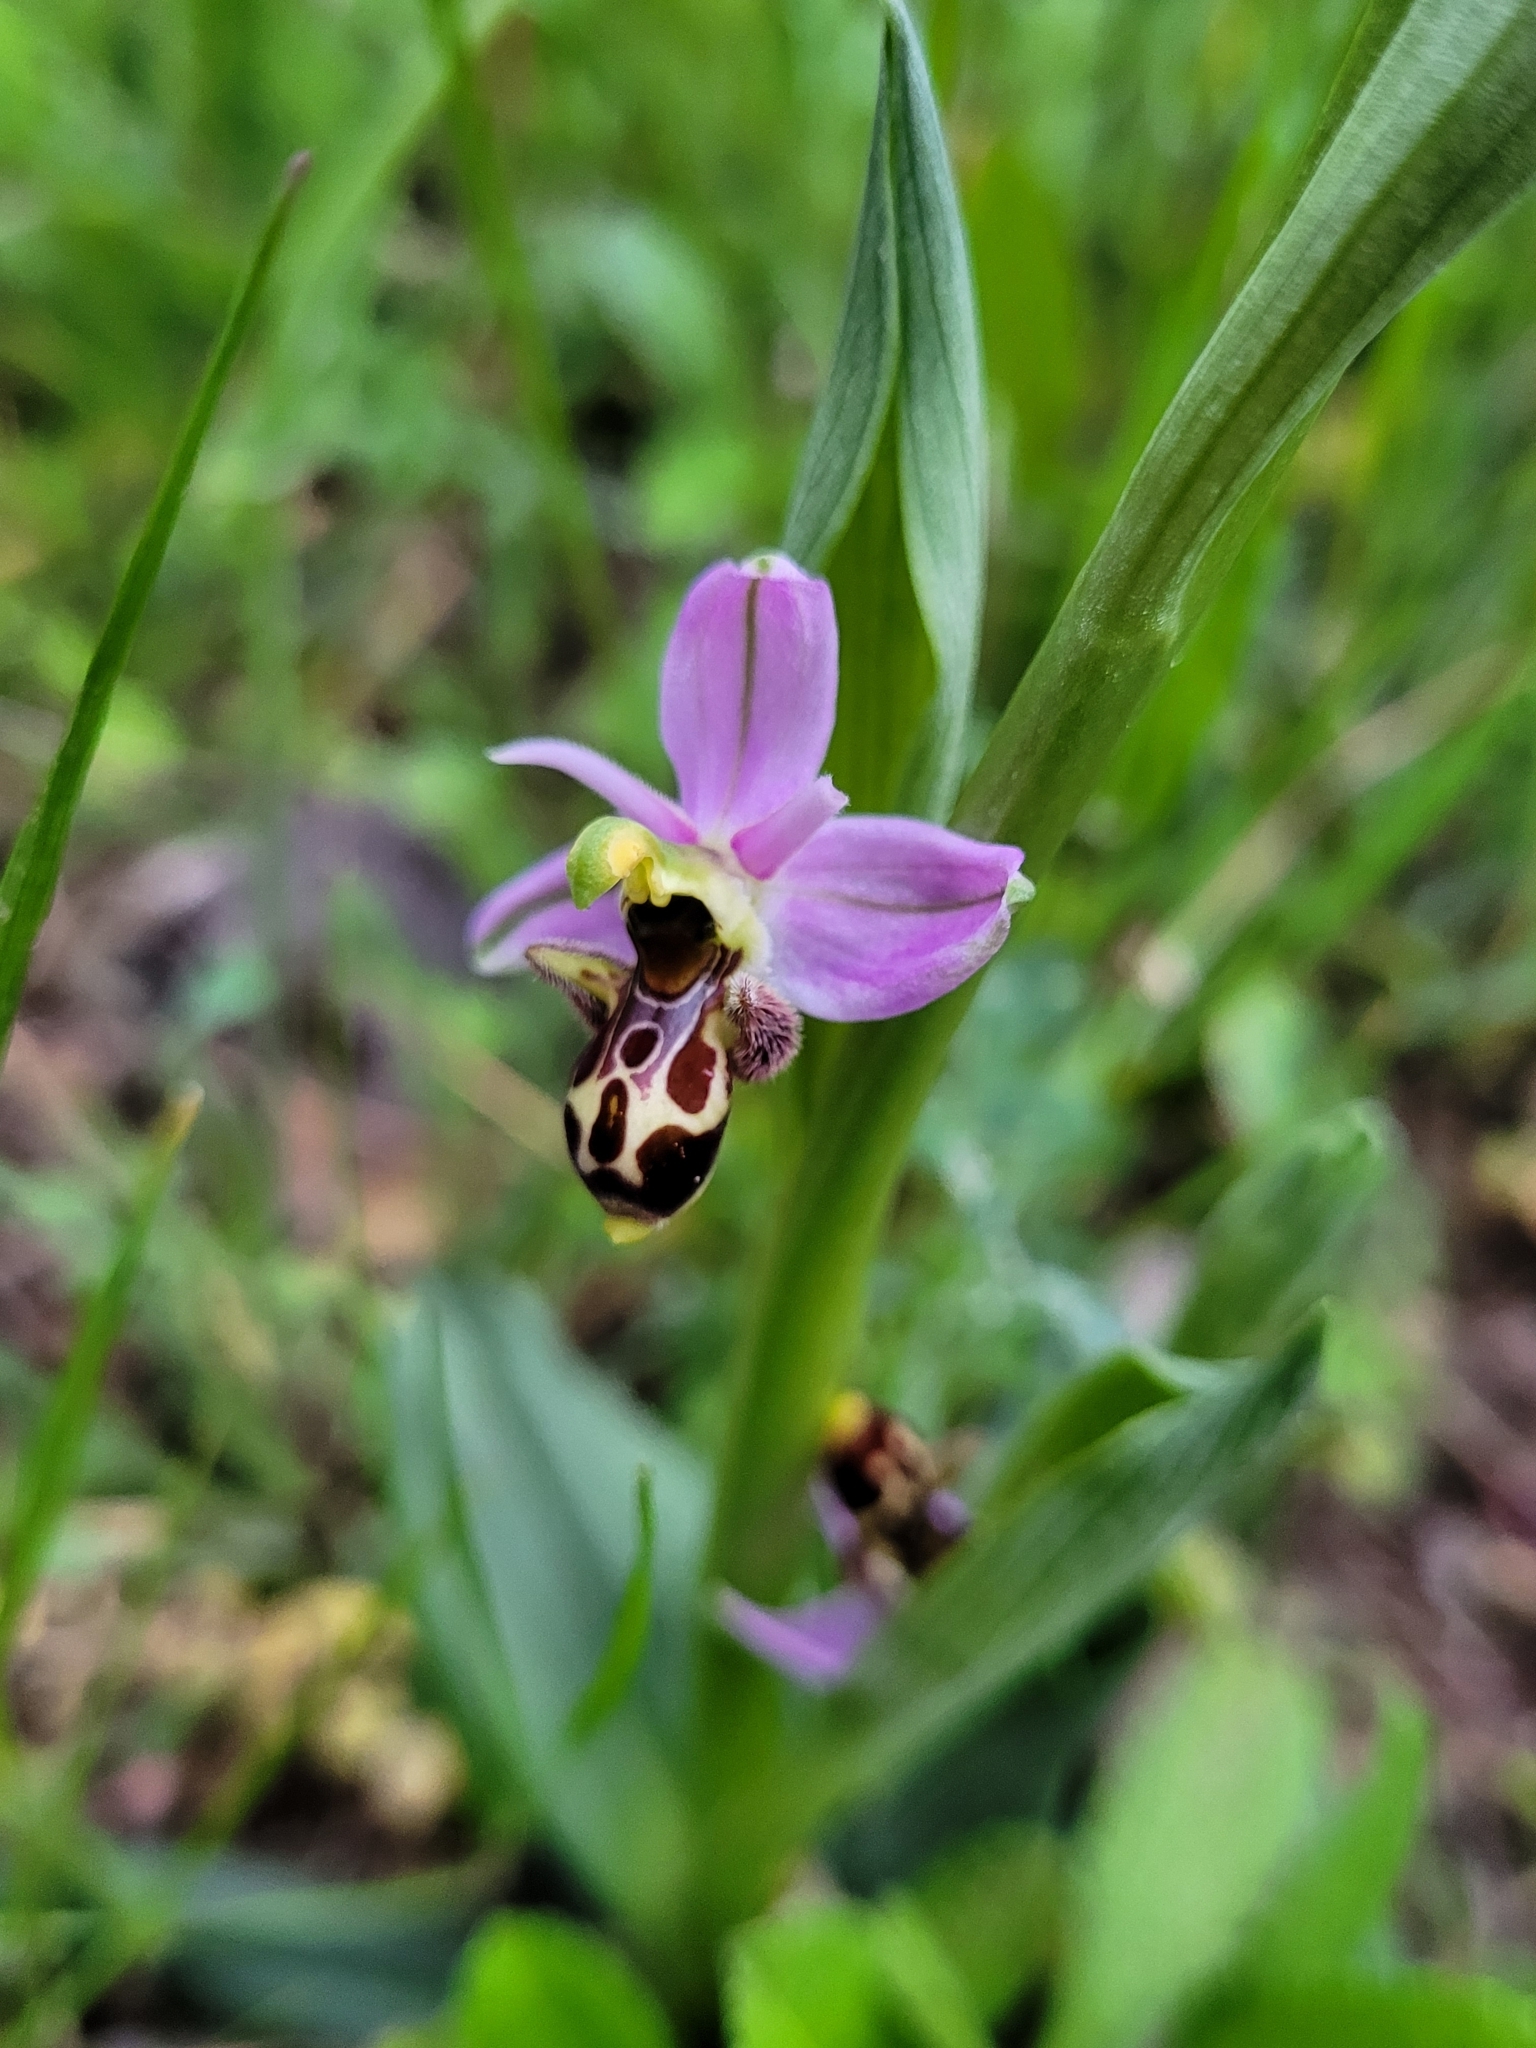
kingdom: Plantae
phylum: Tracheophyta
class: Liliopsida
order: Asparagales
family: Orchidaceae
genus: Ophrys
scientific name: Ophrys scolopax
